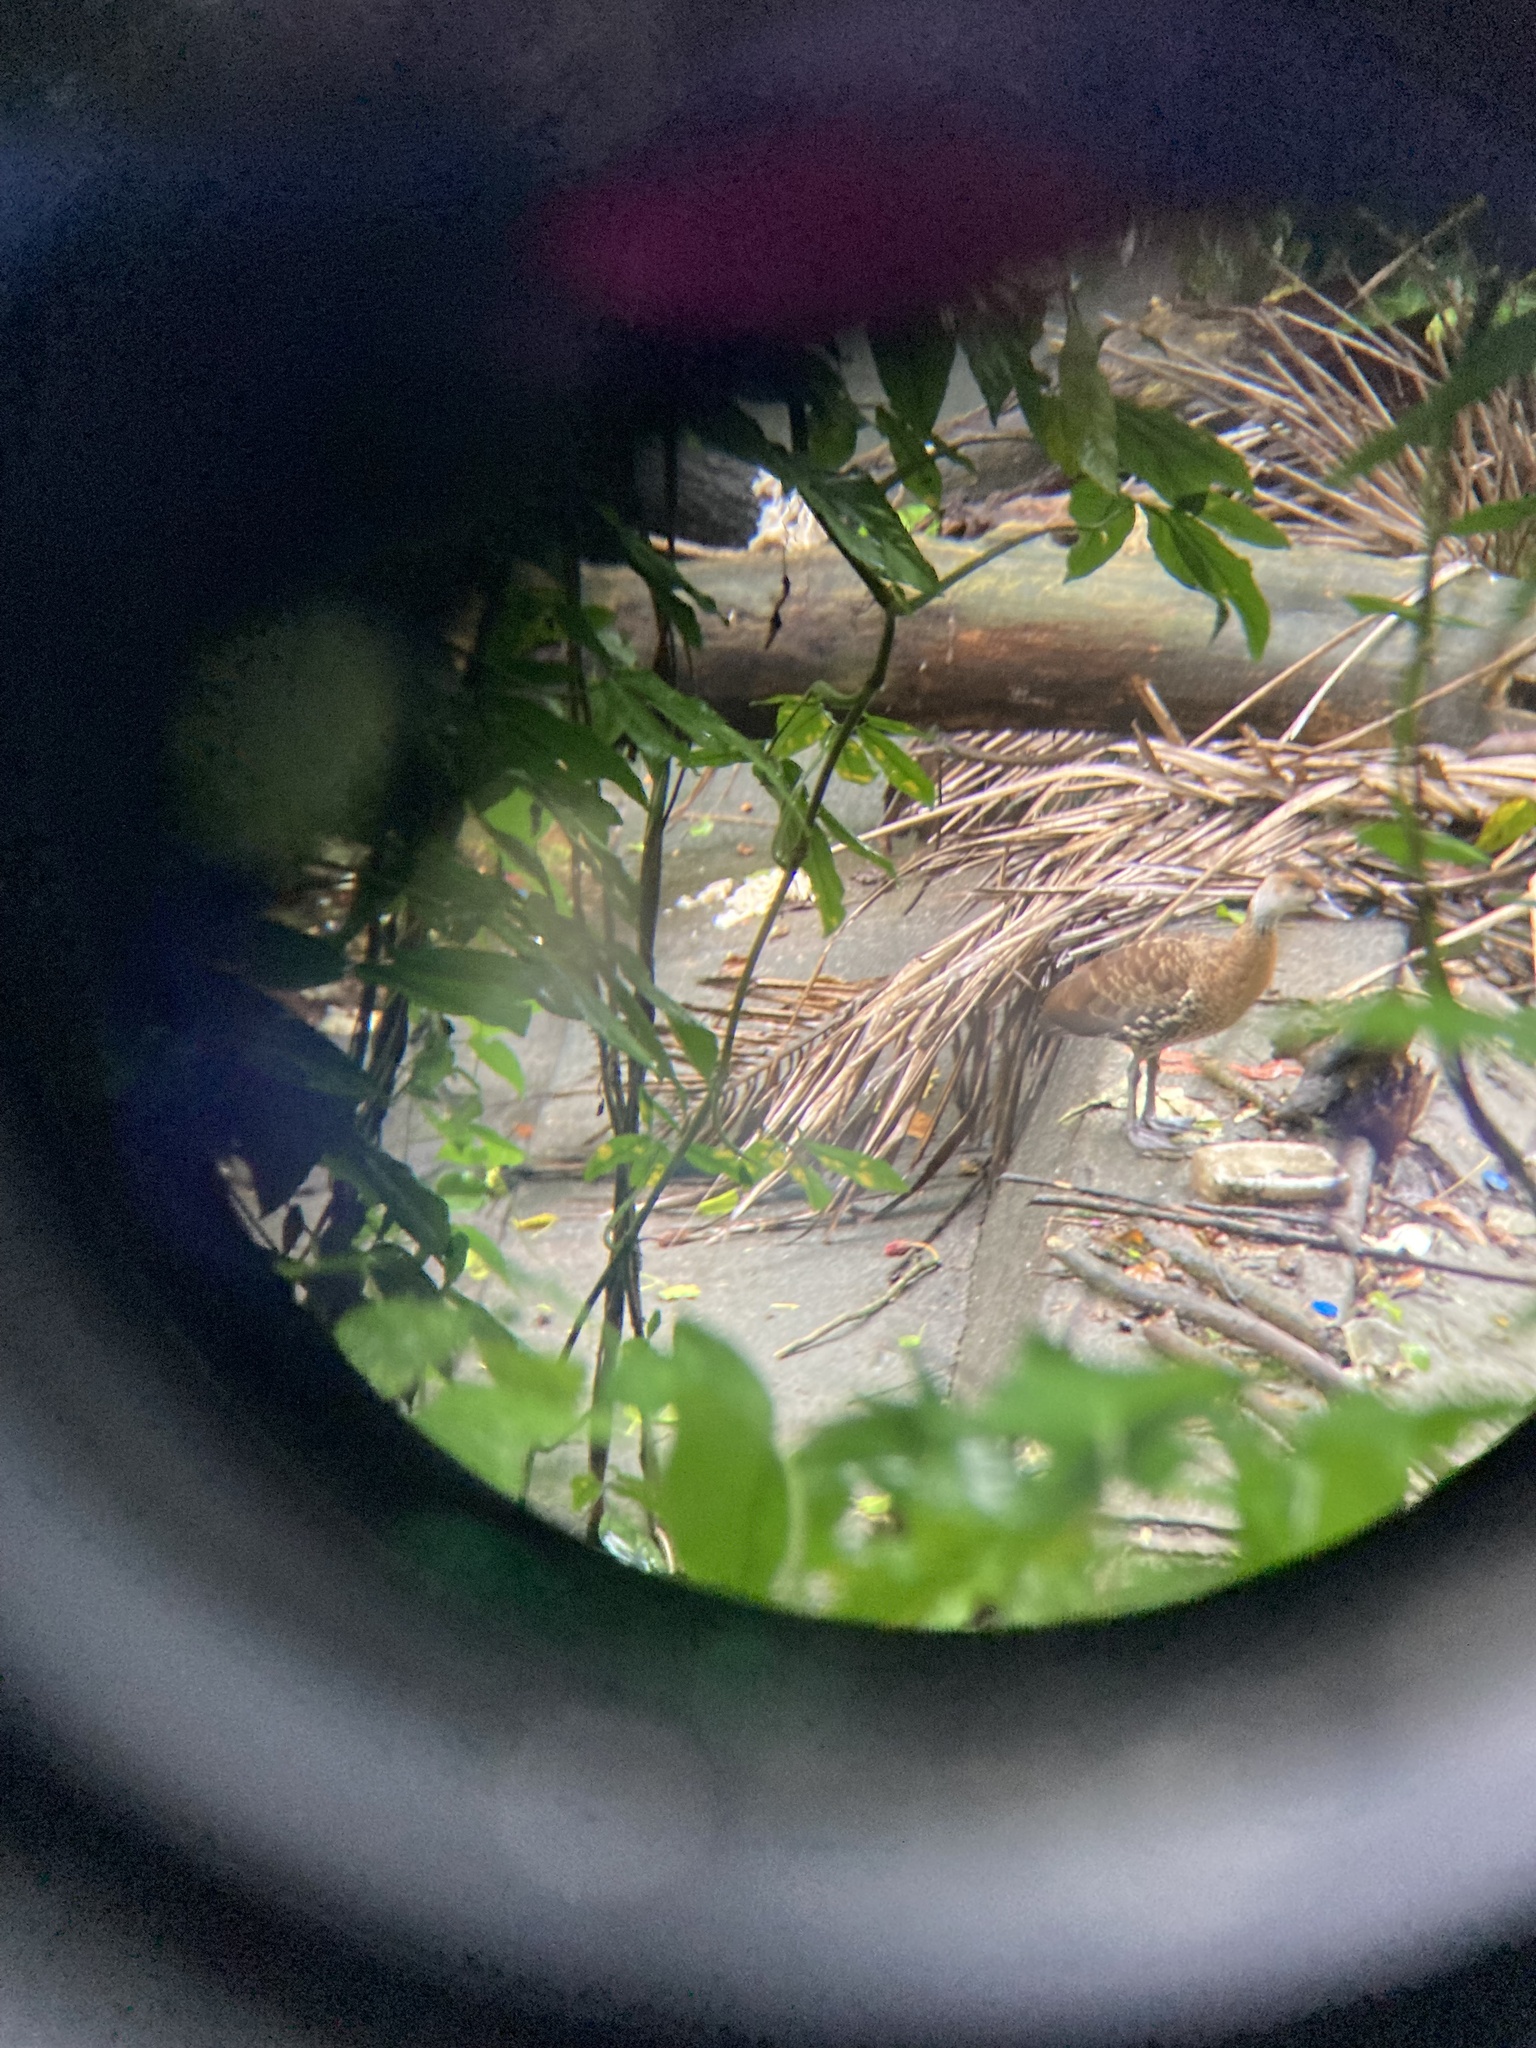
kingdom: Animalia
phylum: Chordata
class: Aves
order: Anseriformes
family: Anatidae
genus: Dendrocygna
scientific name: Dendrocygna arborea
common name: West indian whistling duck
